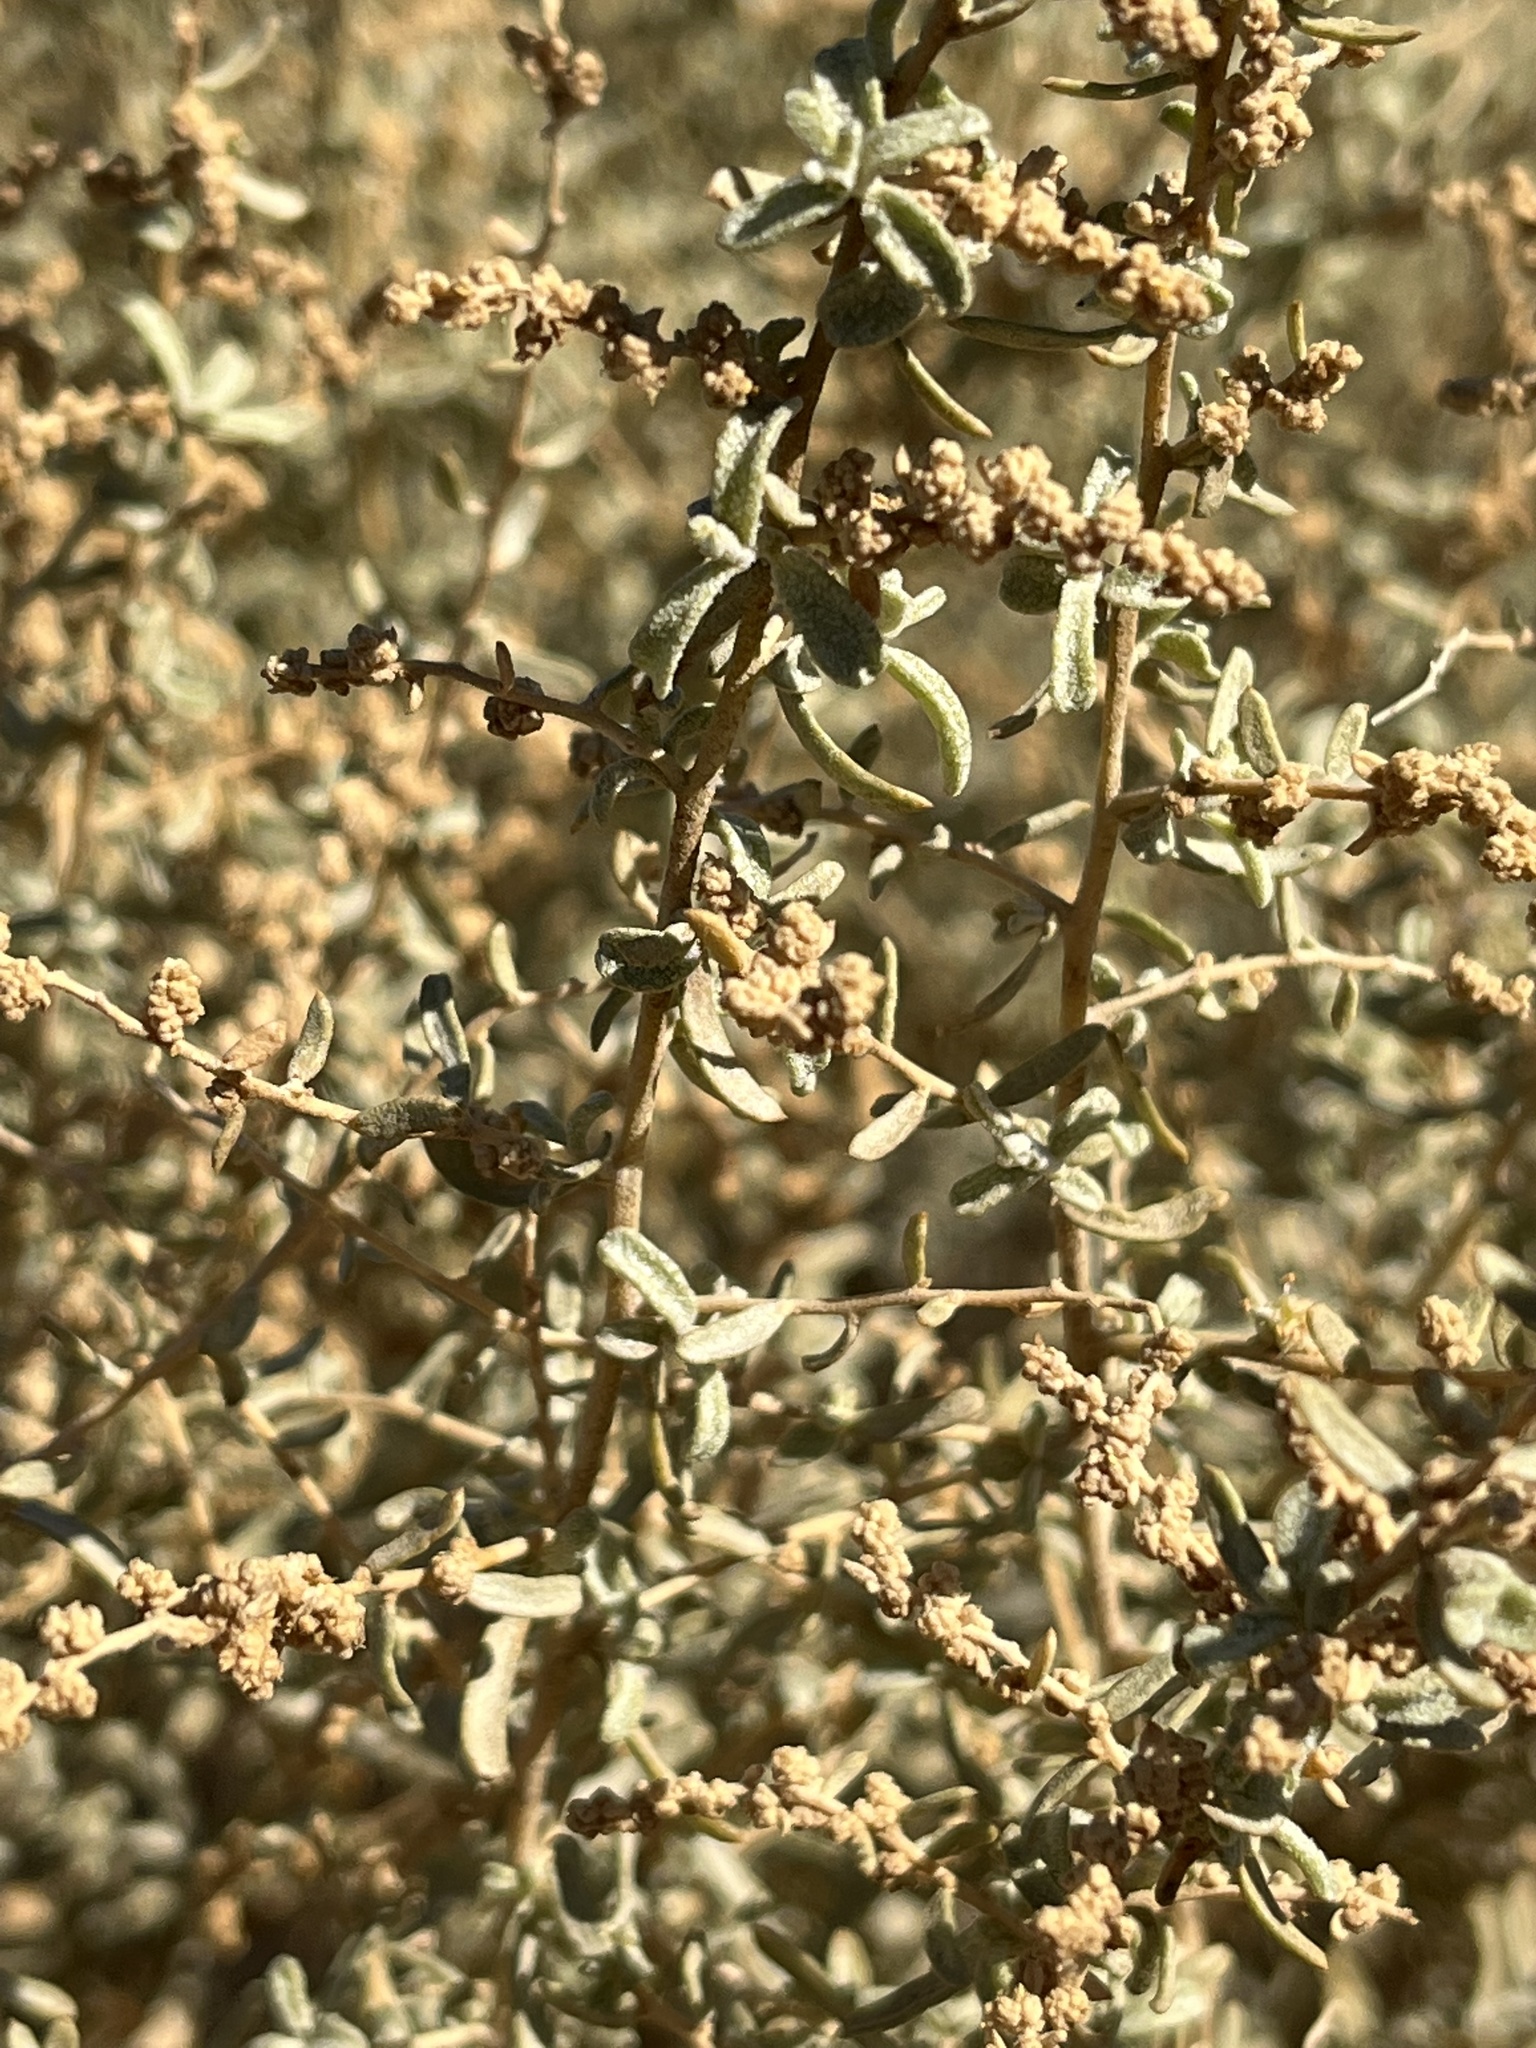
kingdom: Plantae
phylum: Tracheophyta
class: Magnoliopsida
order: Caryophyllales
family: Amaranthaceae
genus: Atriplex
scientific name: Atriplex canescens
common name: Four-wing saltbush
